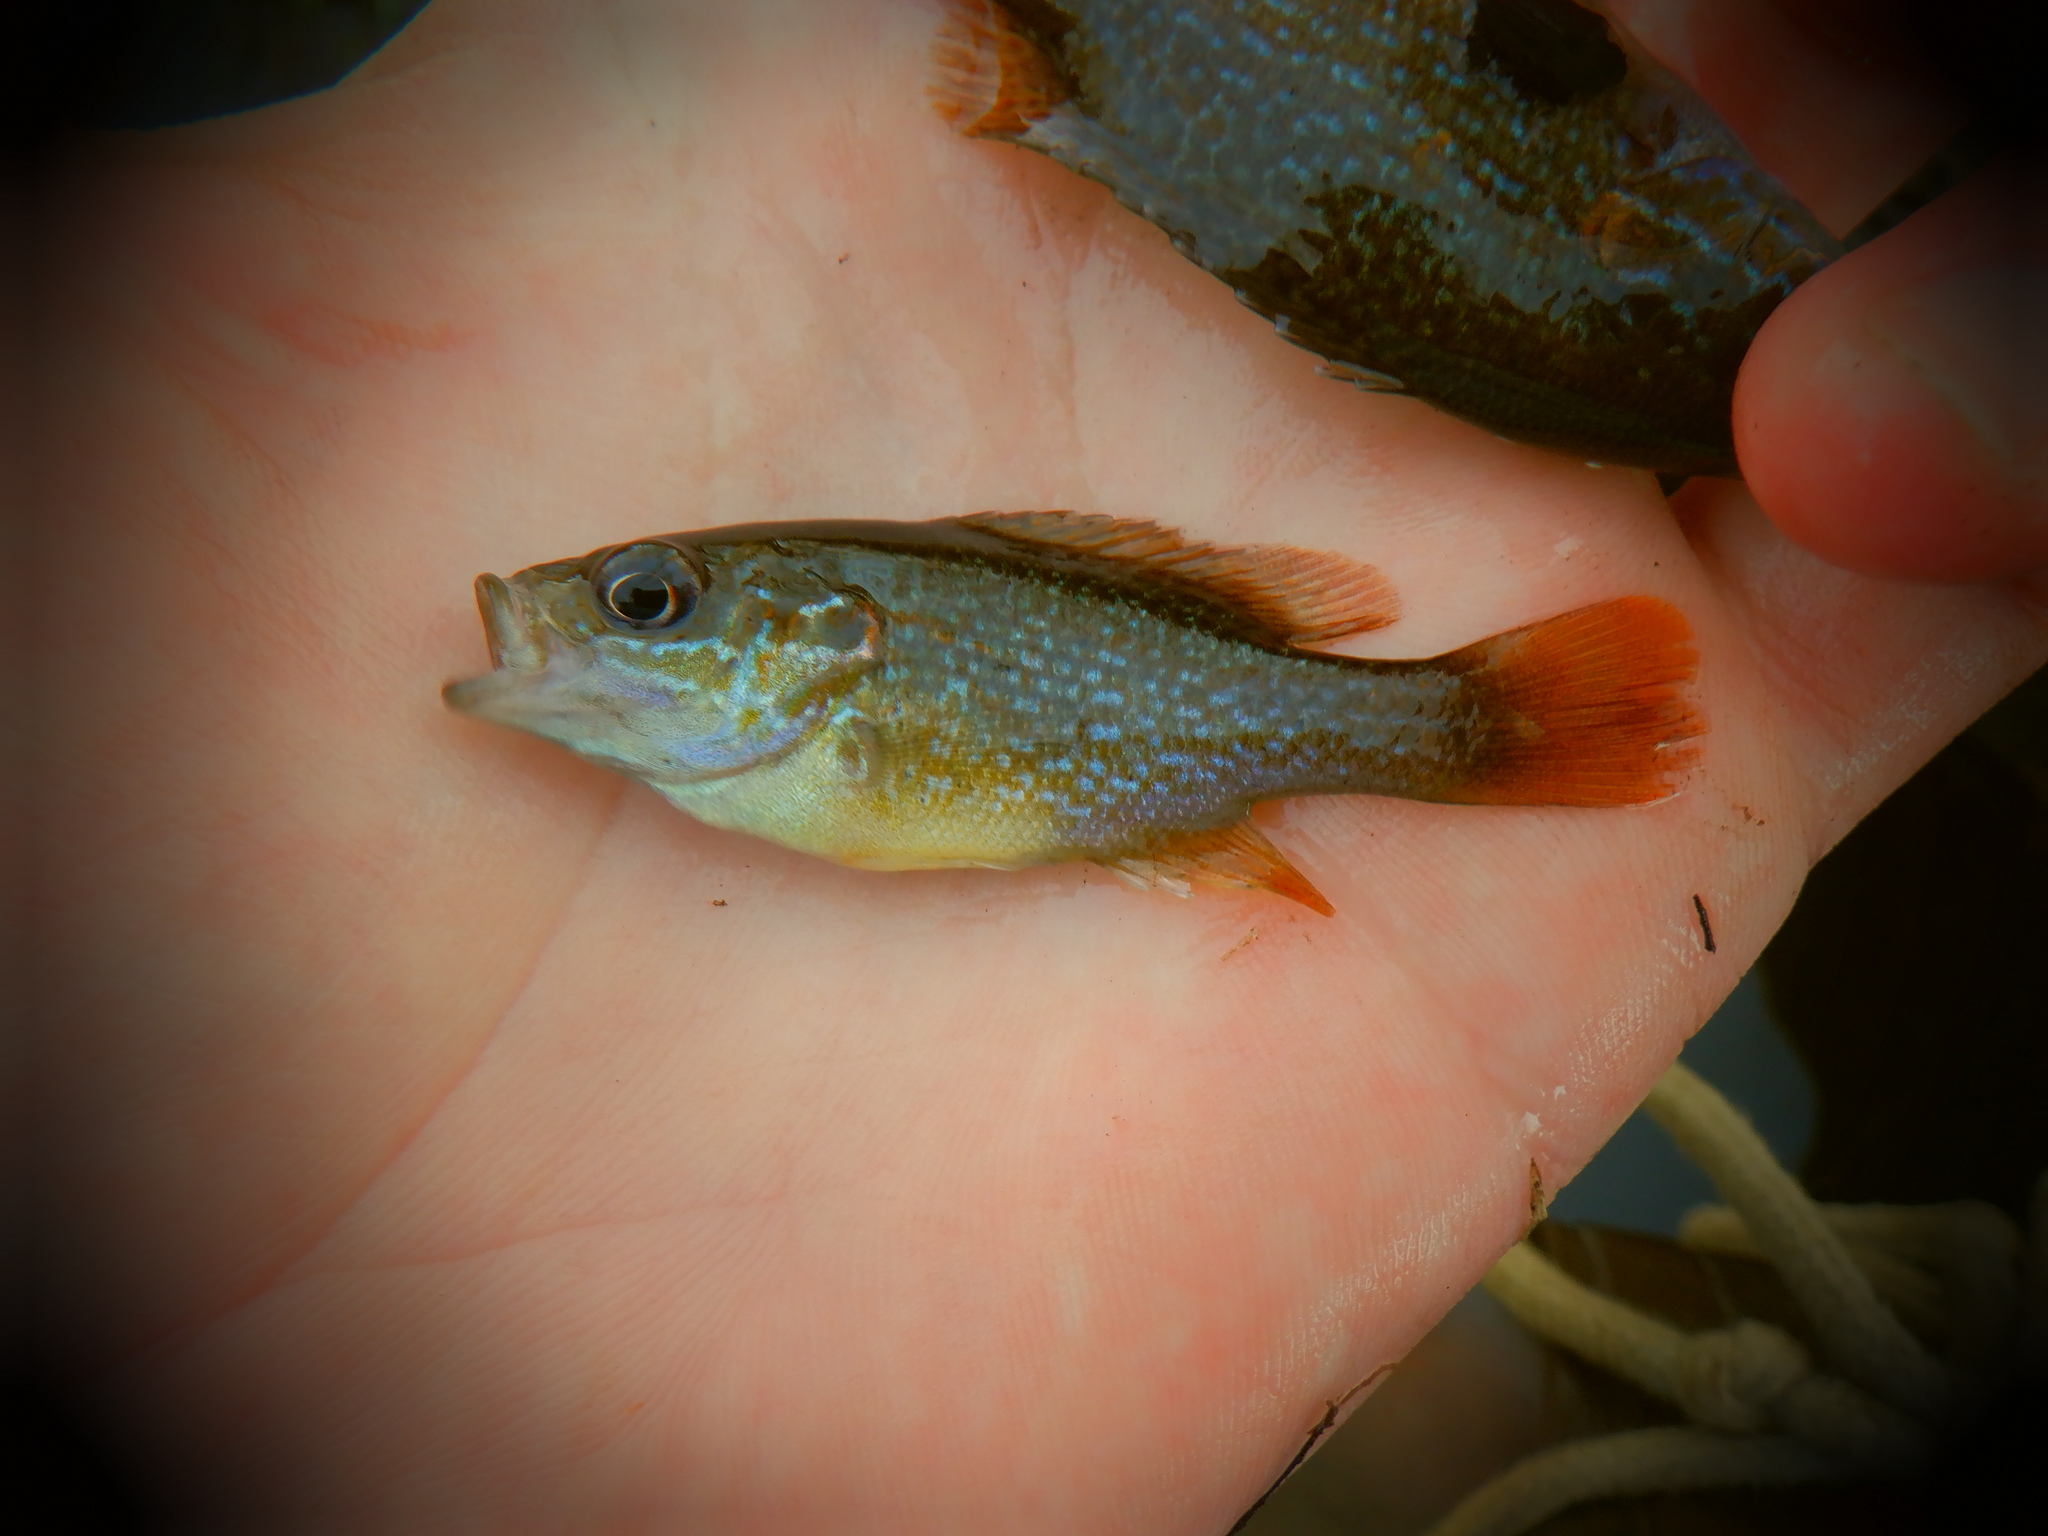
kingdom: Animalia
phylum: Chordata
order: Perciformes
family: Centrarchidae
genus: Lepomis
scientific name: Lepomis cyanellus
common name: Green sunfish
